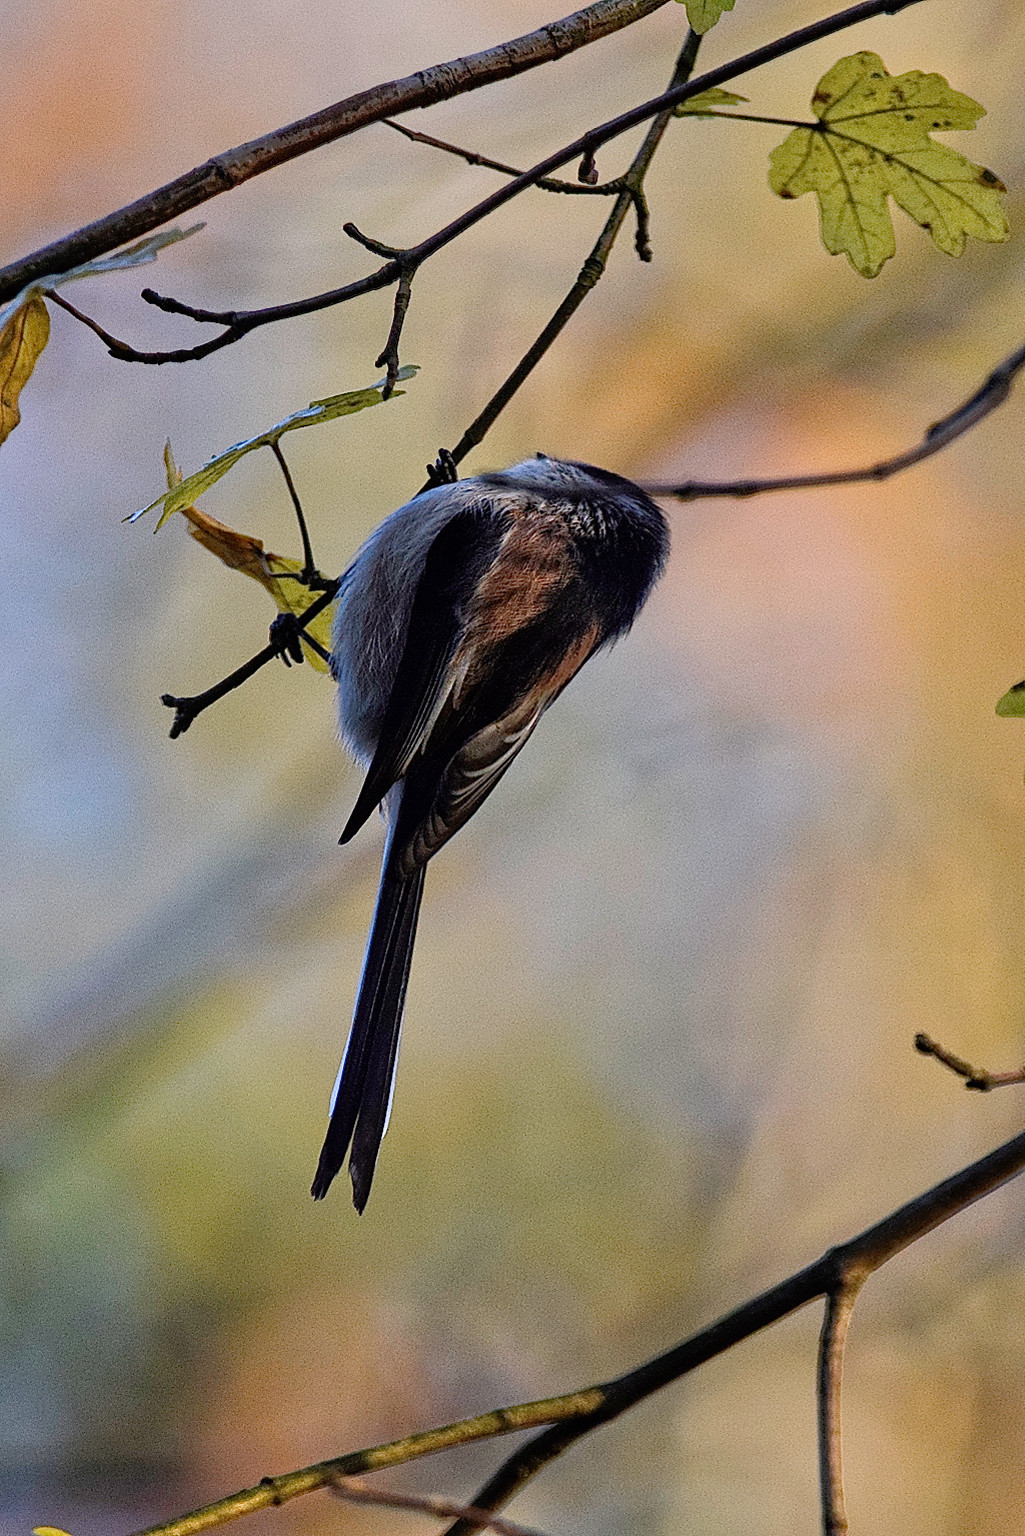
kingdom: Animalia
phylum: Chordata
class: Aves
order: Passeriformes
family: Aegithalidae
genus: Aegithalos
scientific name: Aegithalos caudatus
